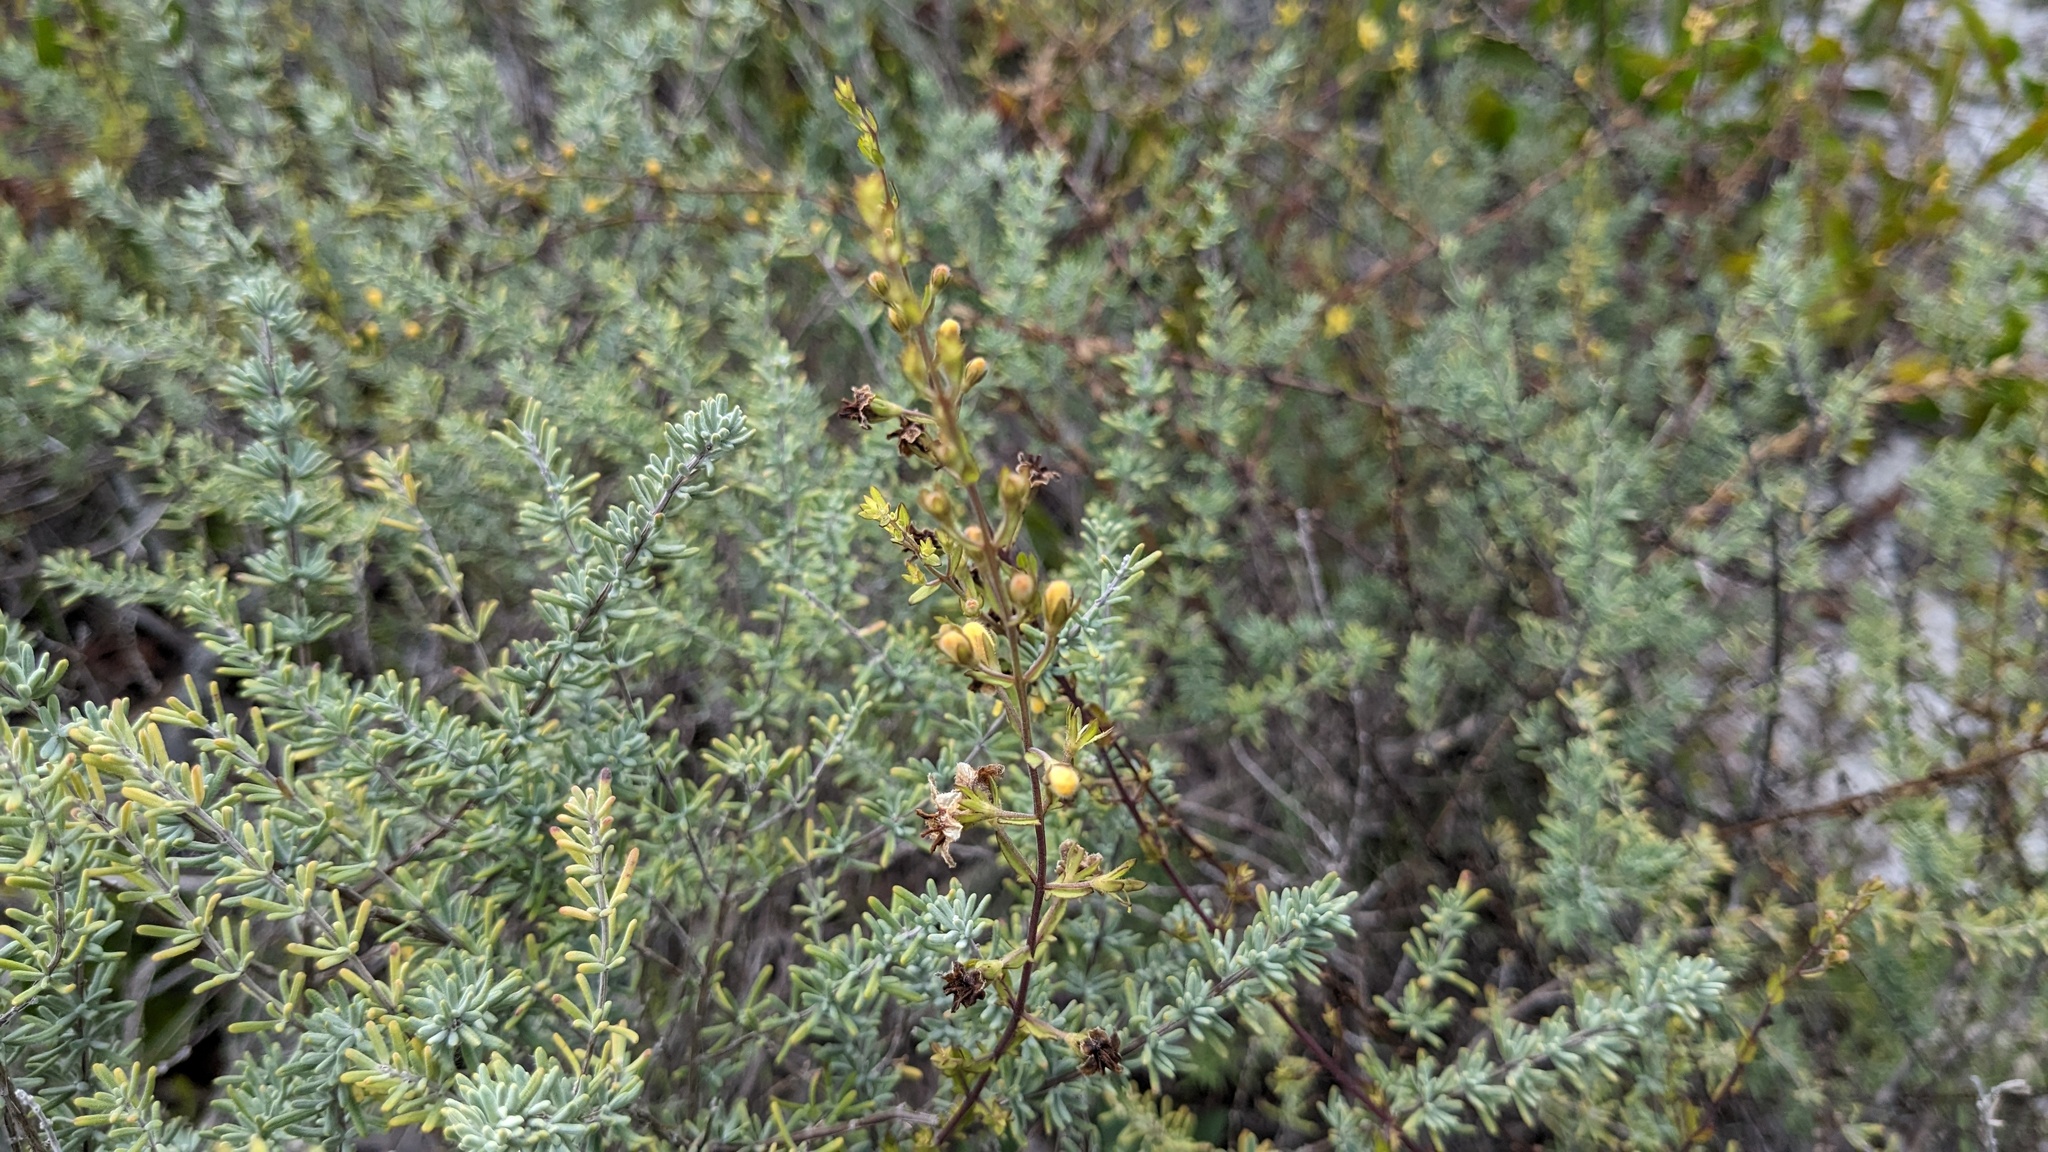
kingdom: Plantae
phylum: Tracheophyta
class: Magnoliopsida
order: Lamiales
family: Orobanchaceae
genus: Seymeria
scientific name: Seymeria pectinata
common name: Piedmont black-senna
